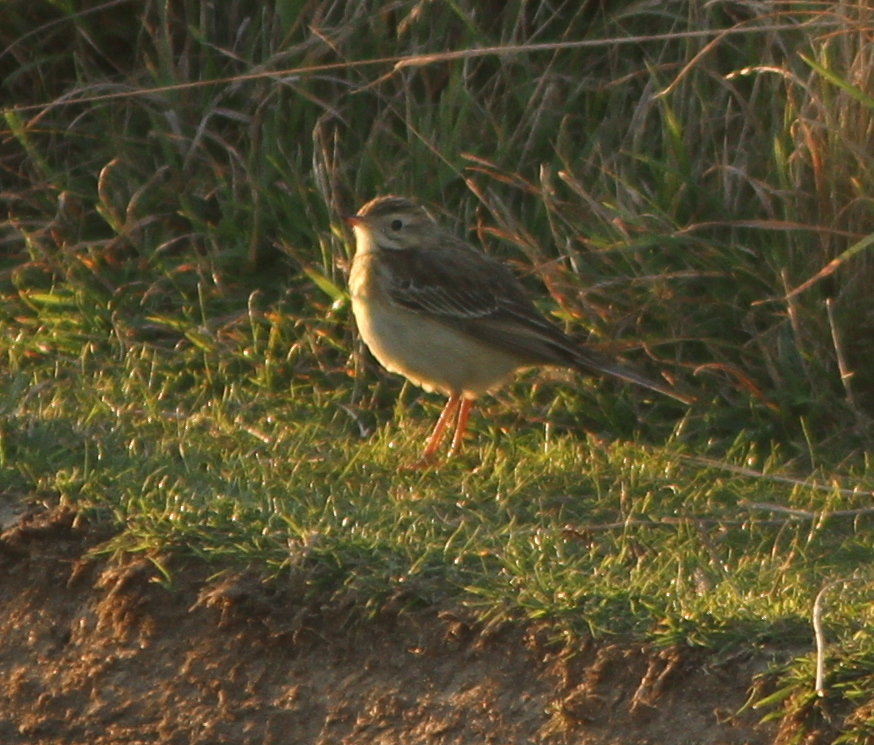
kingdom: Animalia
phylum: Chordata
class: Aves
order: Passeriformes
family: Motacillidae
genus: Anthus
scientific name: Anthus godlewskii
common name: Blyth's pipit
